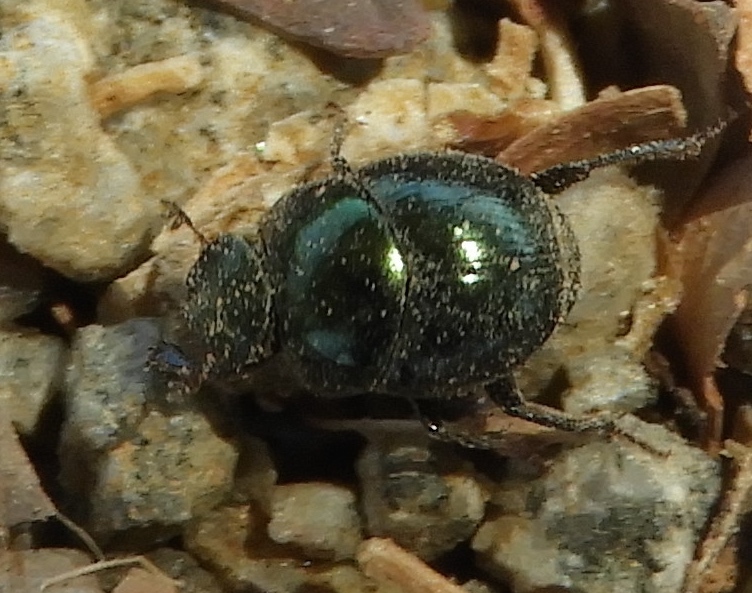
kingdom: Animalia
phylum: Arthropoda
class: Insecta
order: Coleoptera
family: Scarabaeidae
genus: Canthon
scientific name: Canthon
